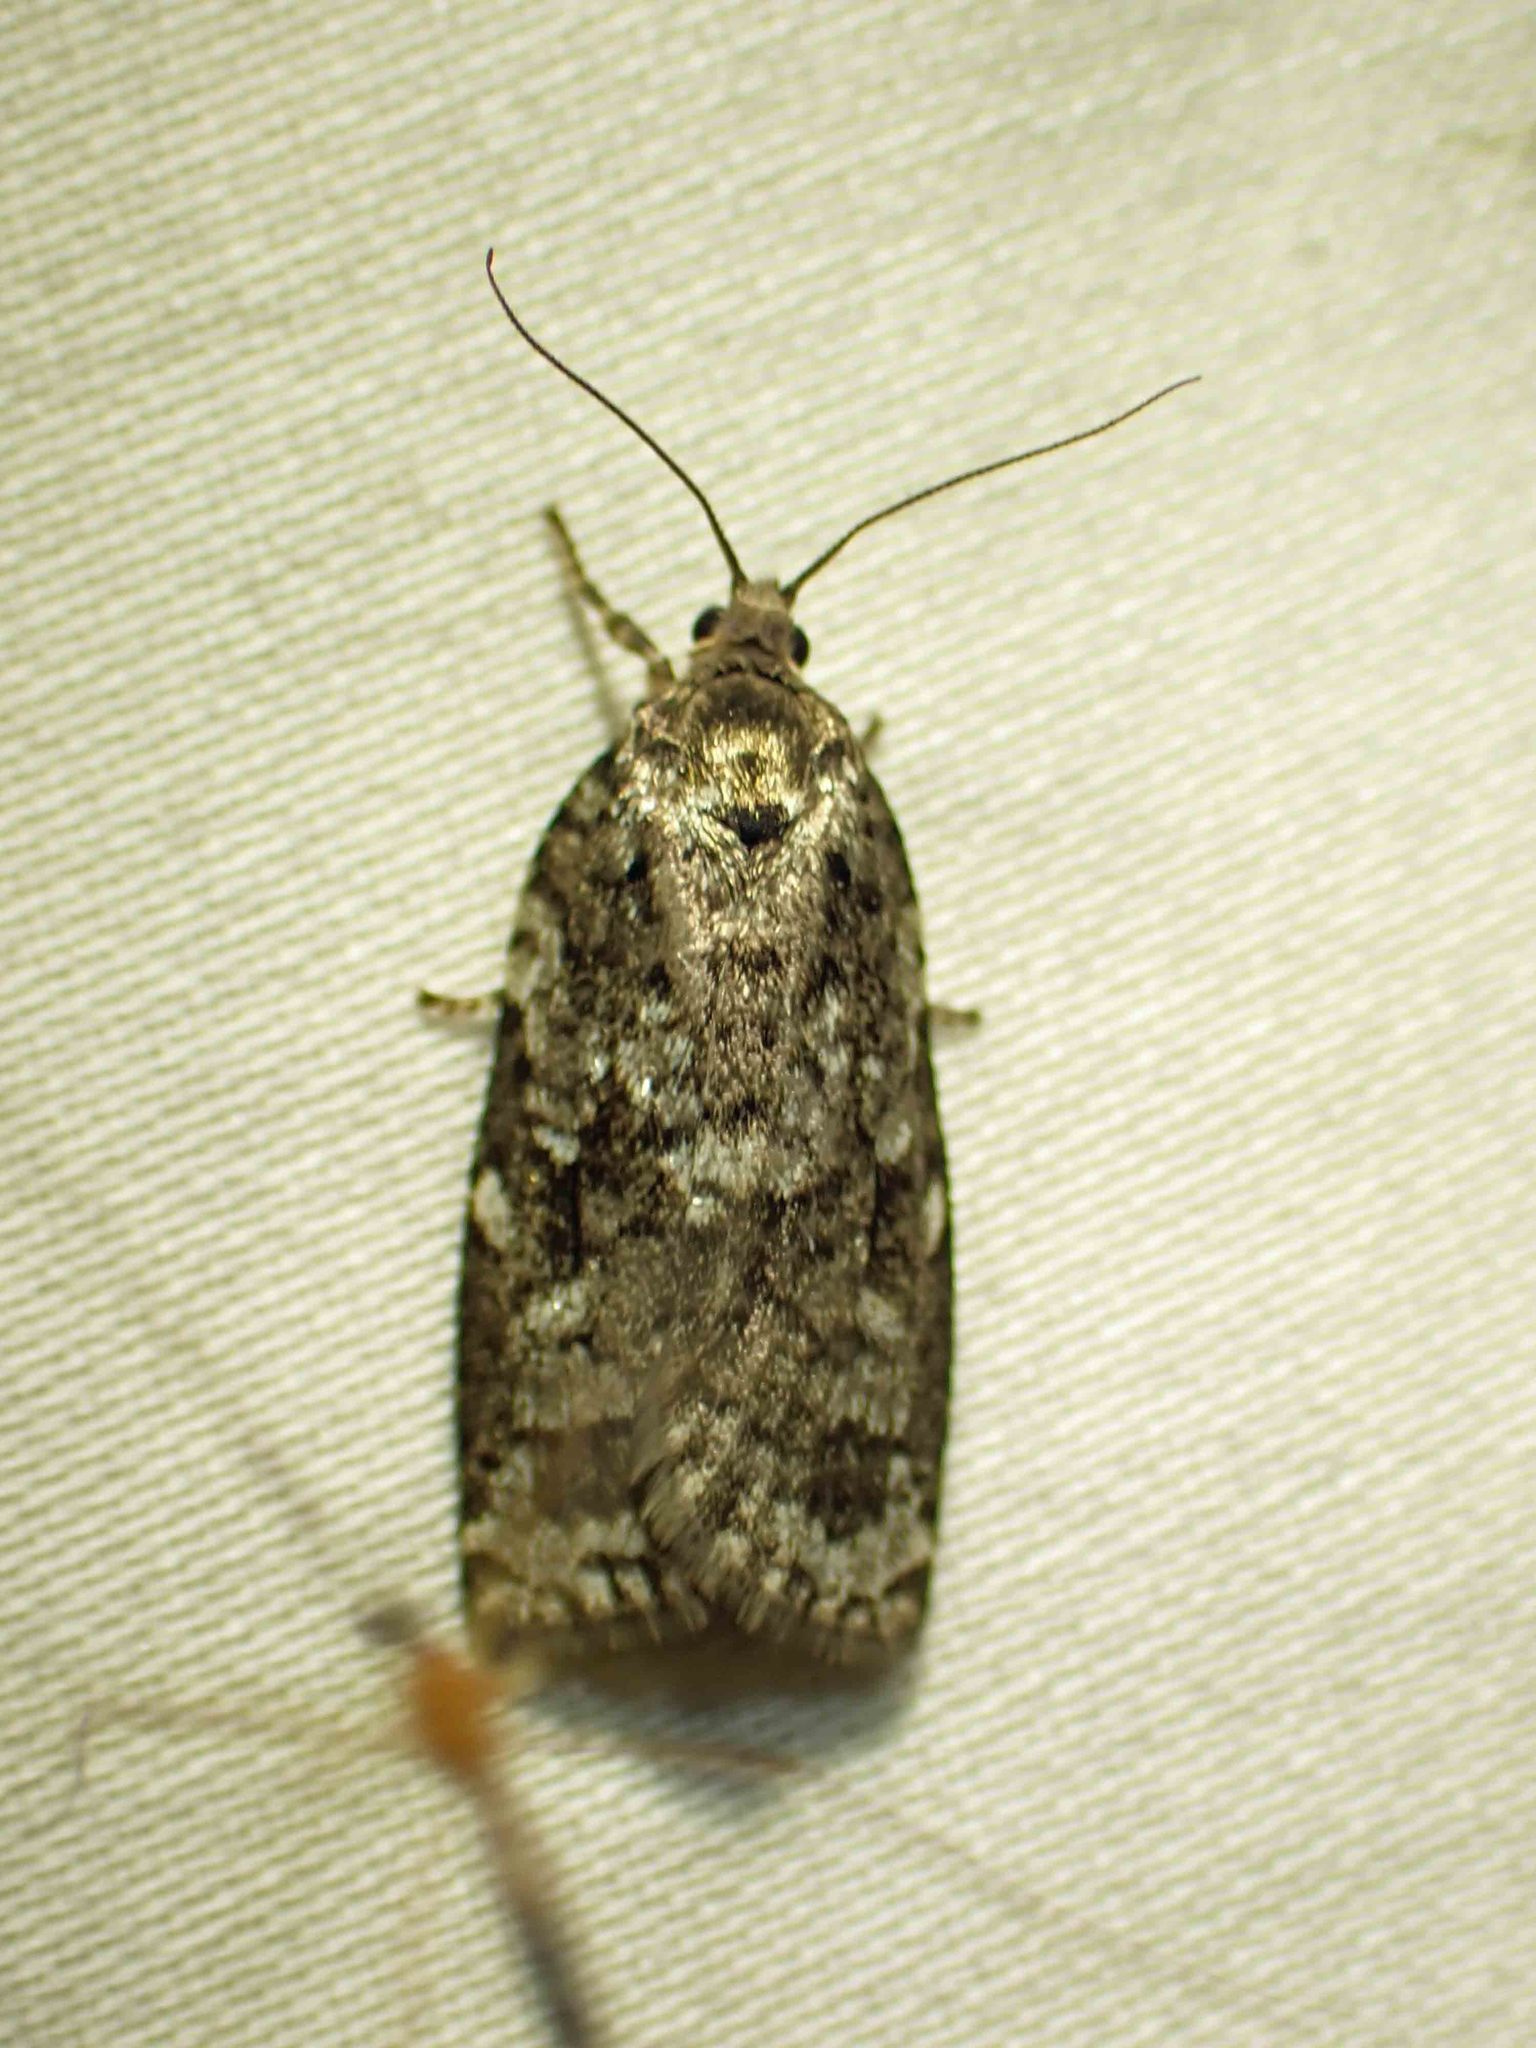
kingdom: Animalia
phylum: Arthropoda
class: Insecta
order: Lepidoptera
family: Tortricidae
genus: Choristoneura
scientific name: Choristoneura fumiferana
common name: Spruce budworm
